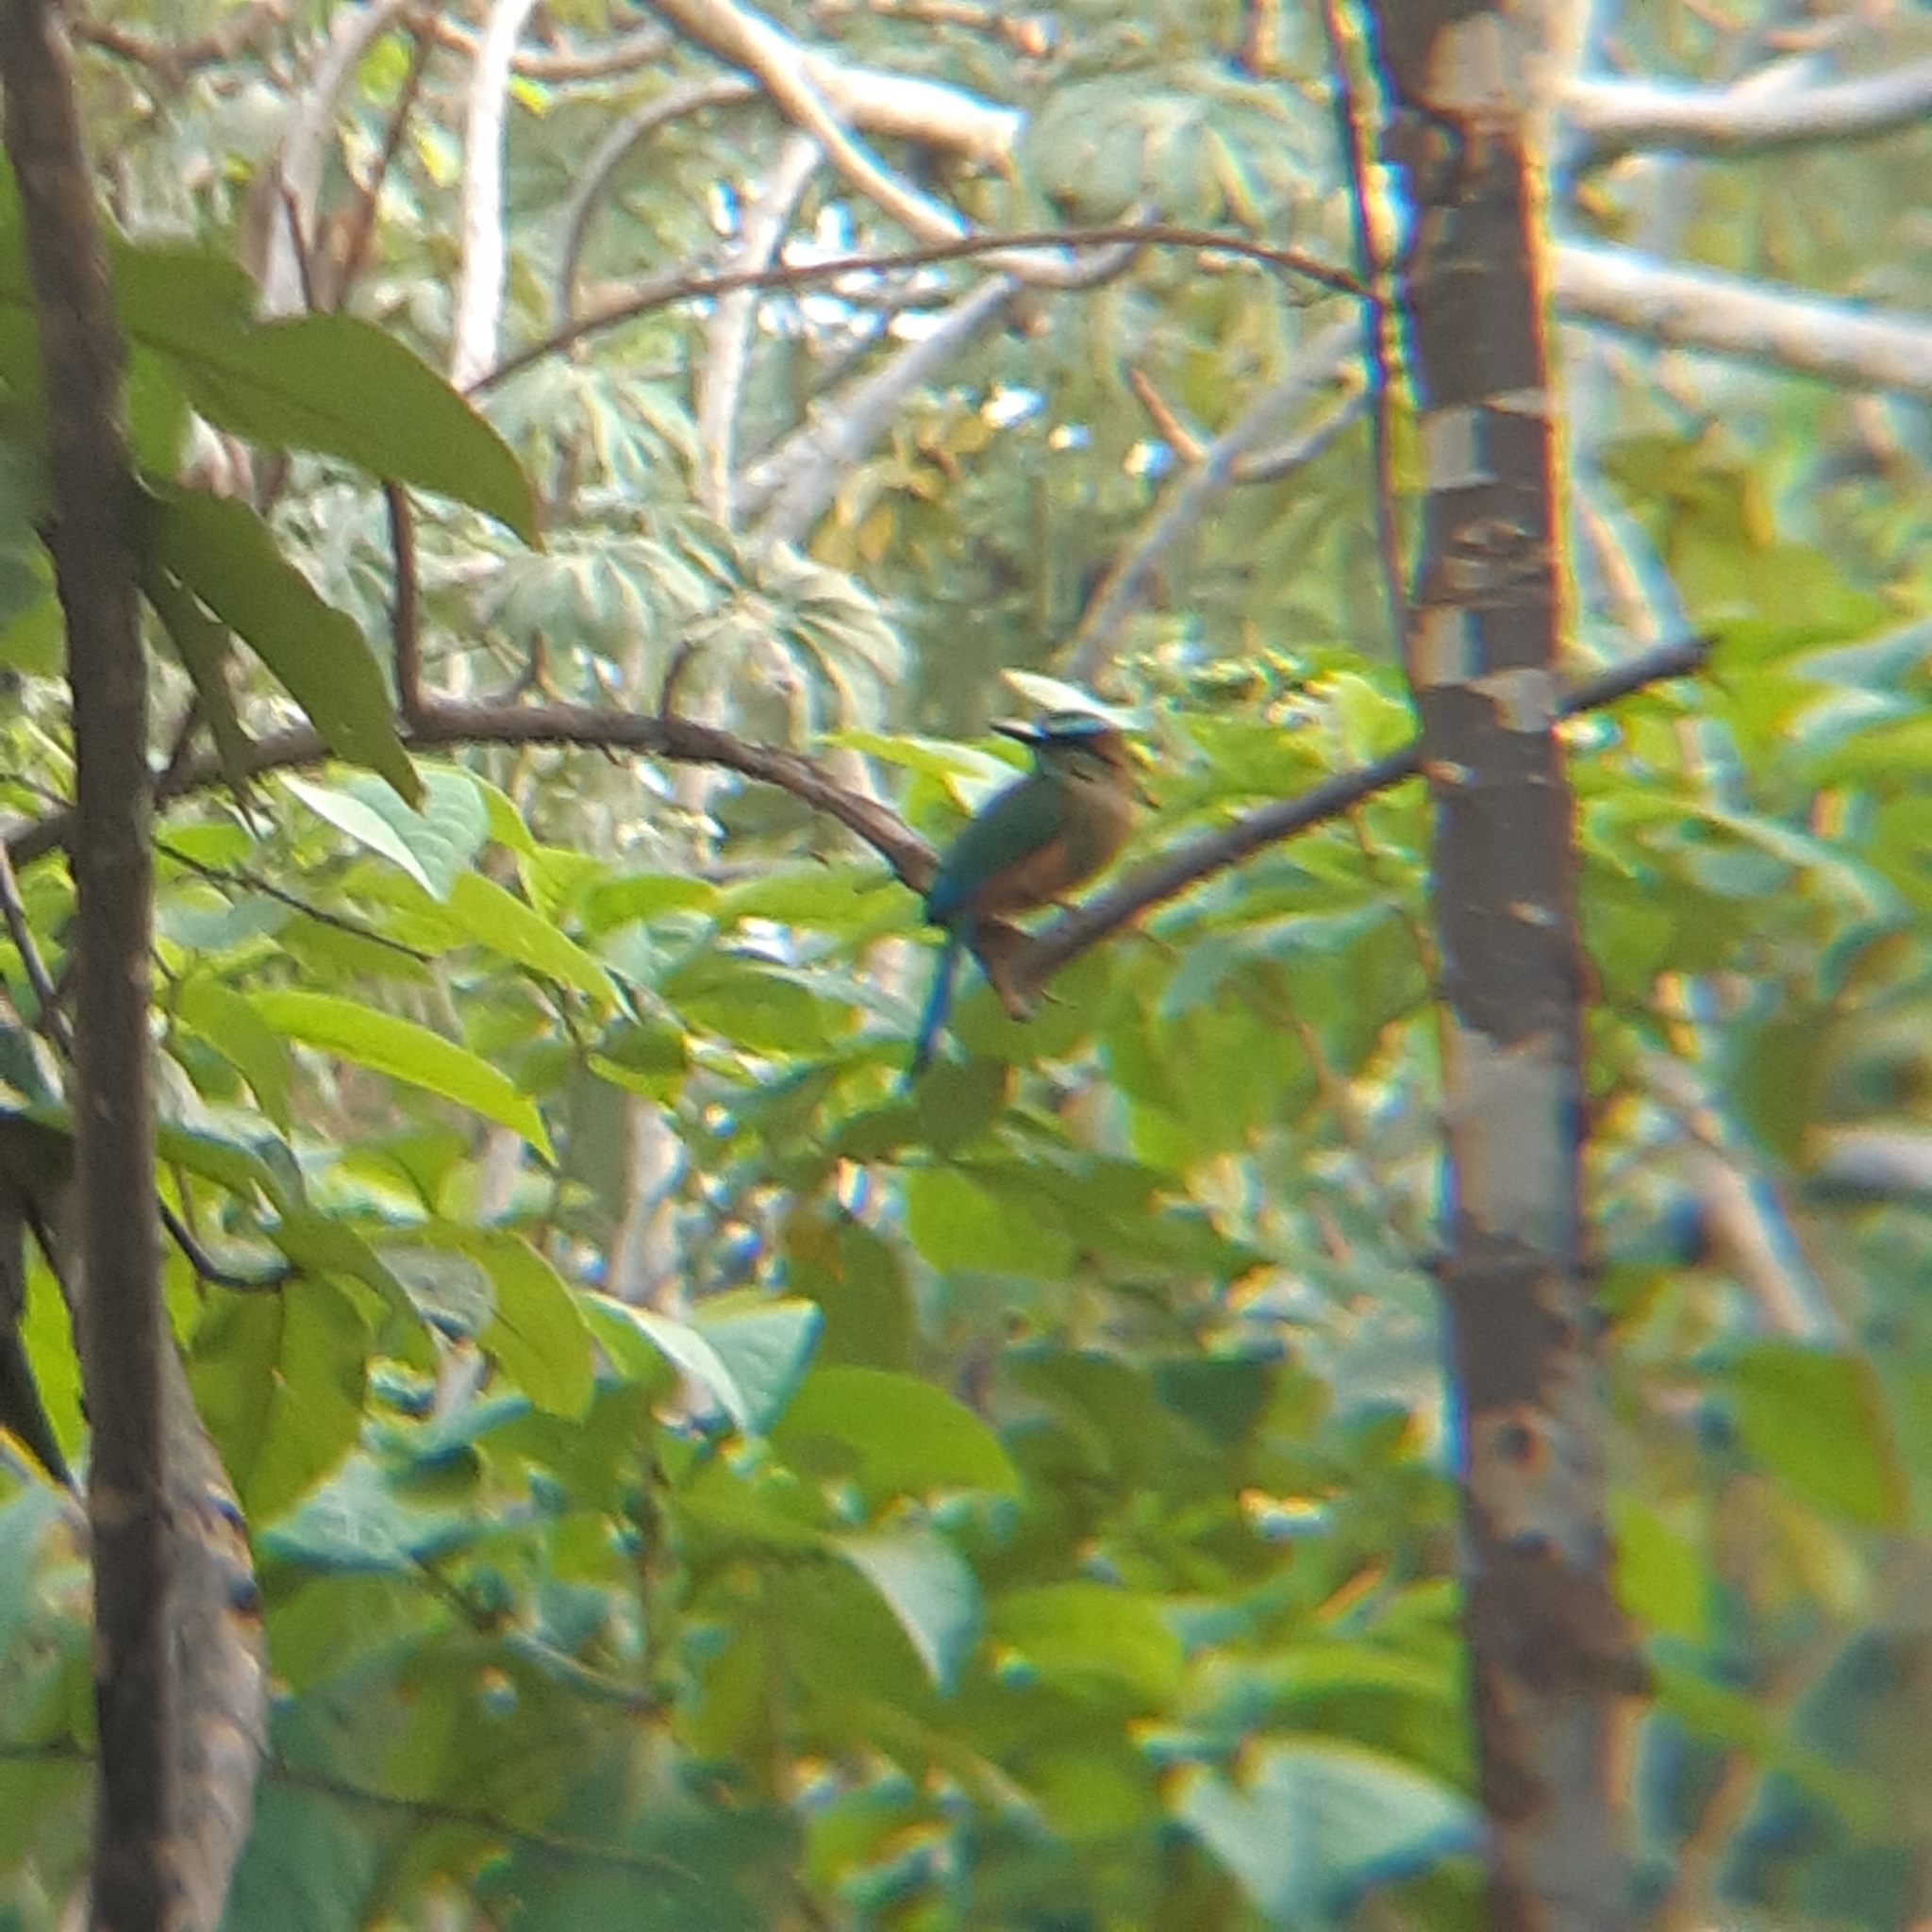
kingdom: Animalia
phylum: Chordata
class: Aves
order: Coraciiformes
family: Momotidae
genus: Eumomota
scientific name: Eumomota superciliosa
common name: Turquoise-browed motmot
